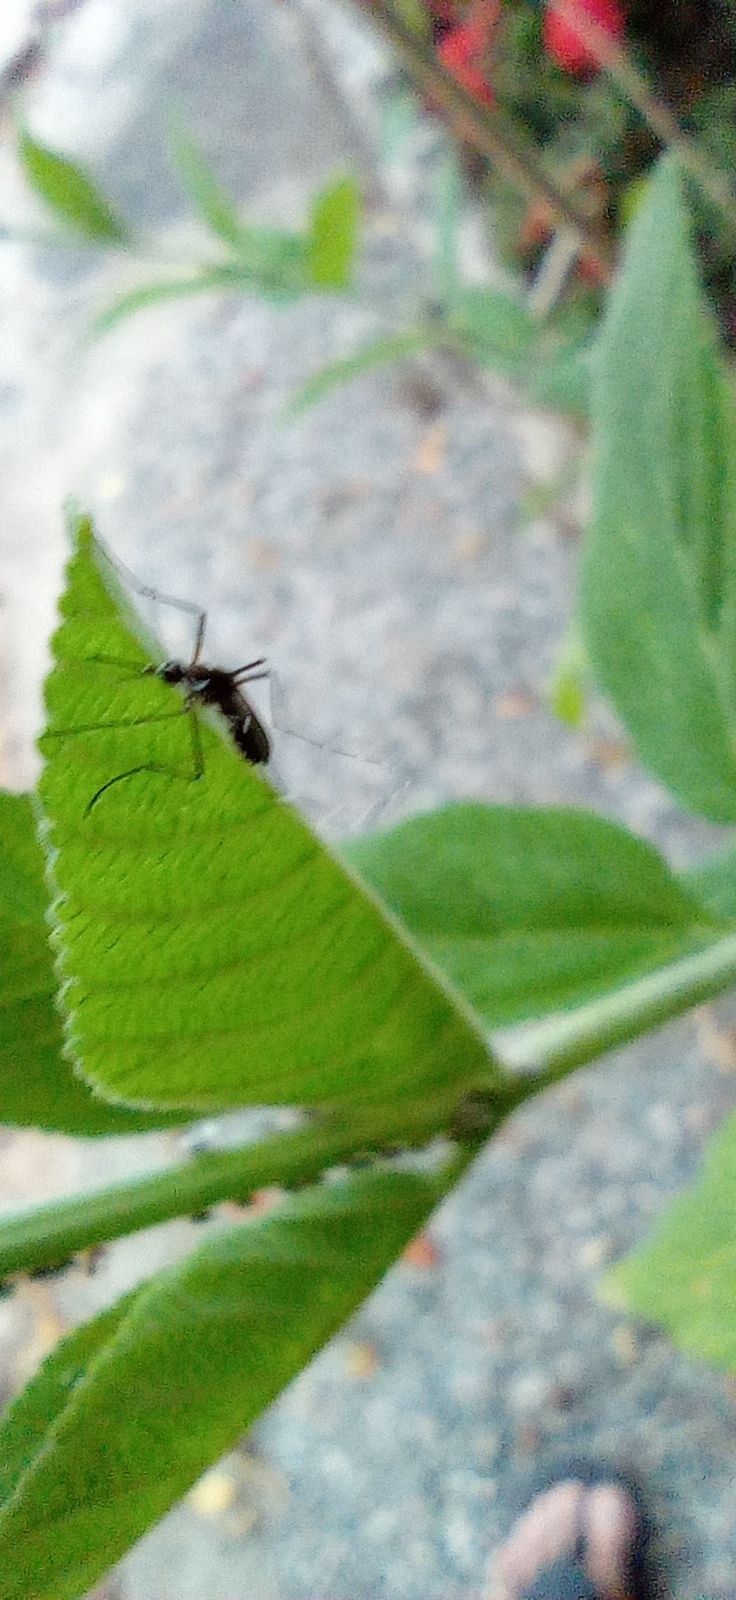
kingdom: Animalia
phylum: Arthropoda
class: Insecta
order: Diptera
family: Culicidae
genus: Aedes
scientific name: Aedes aegypti
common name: Yellow fever mosquito
